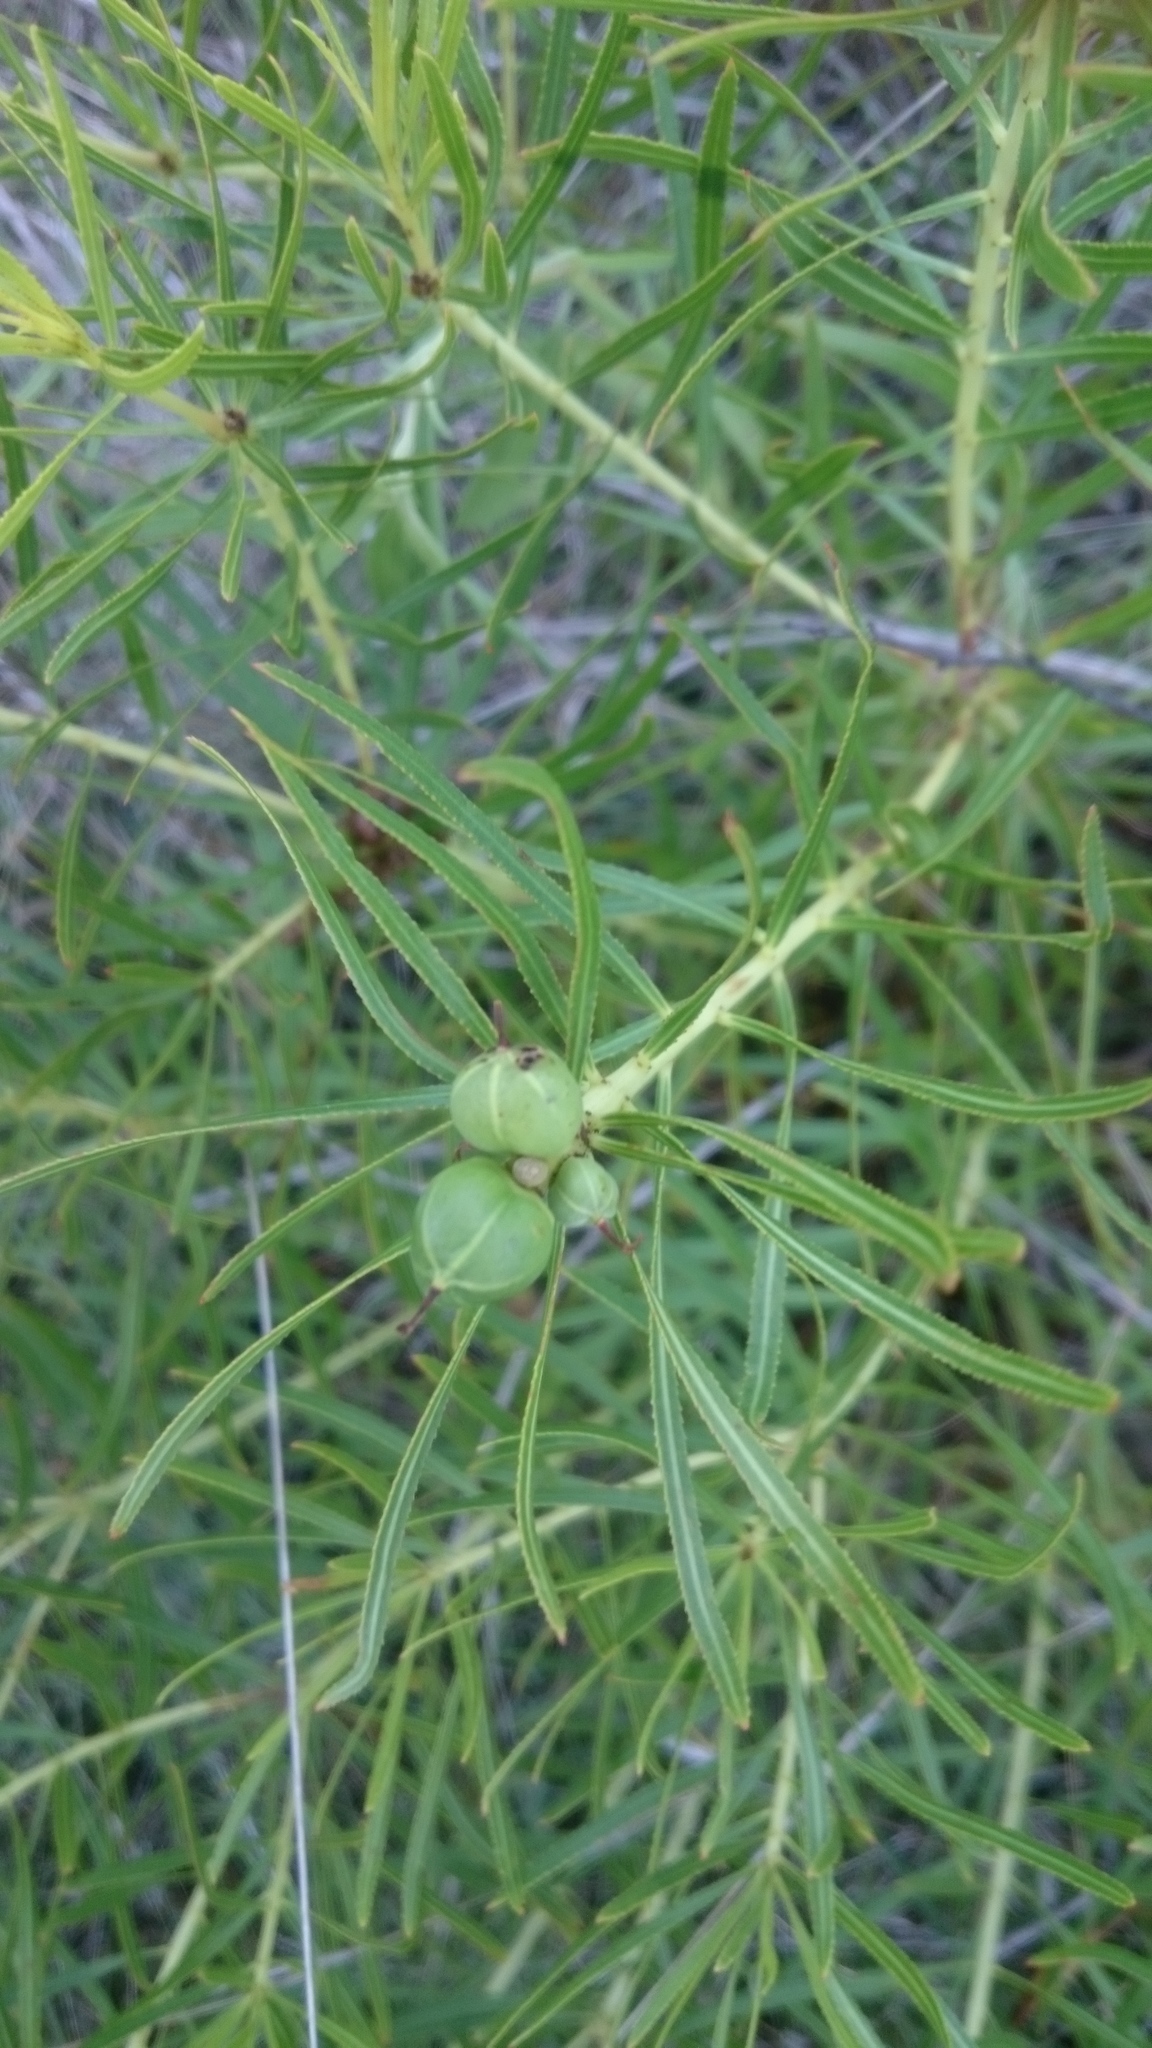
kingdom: Plantae
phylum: Tracheophyta
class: Magnoliopsida
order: Malpighiales
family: Euphorbiaceae
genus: Stillingia
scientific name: Stillingia texana
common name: Texas stillingia
